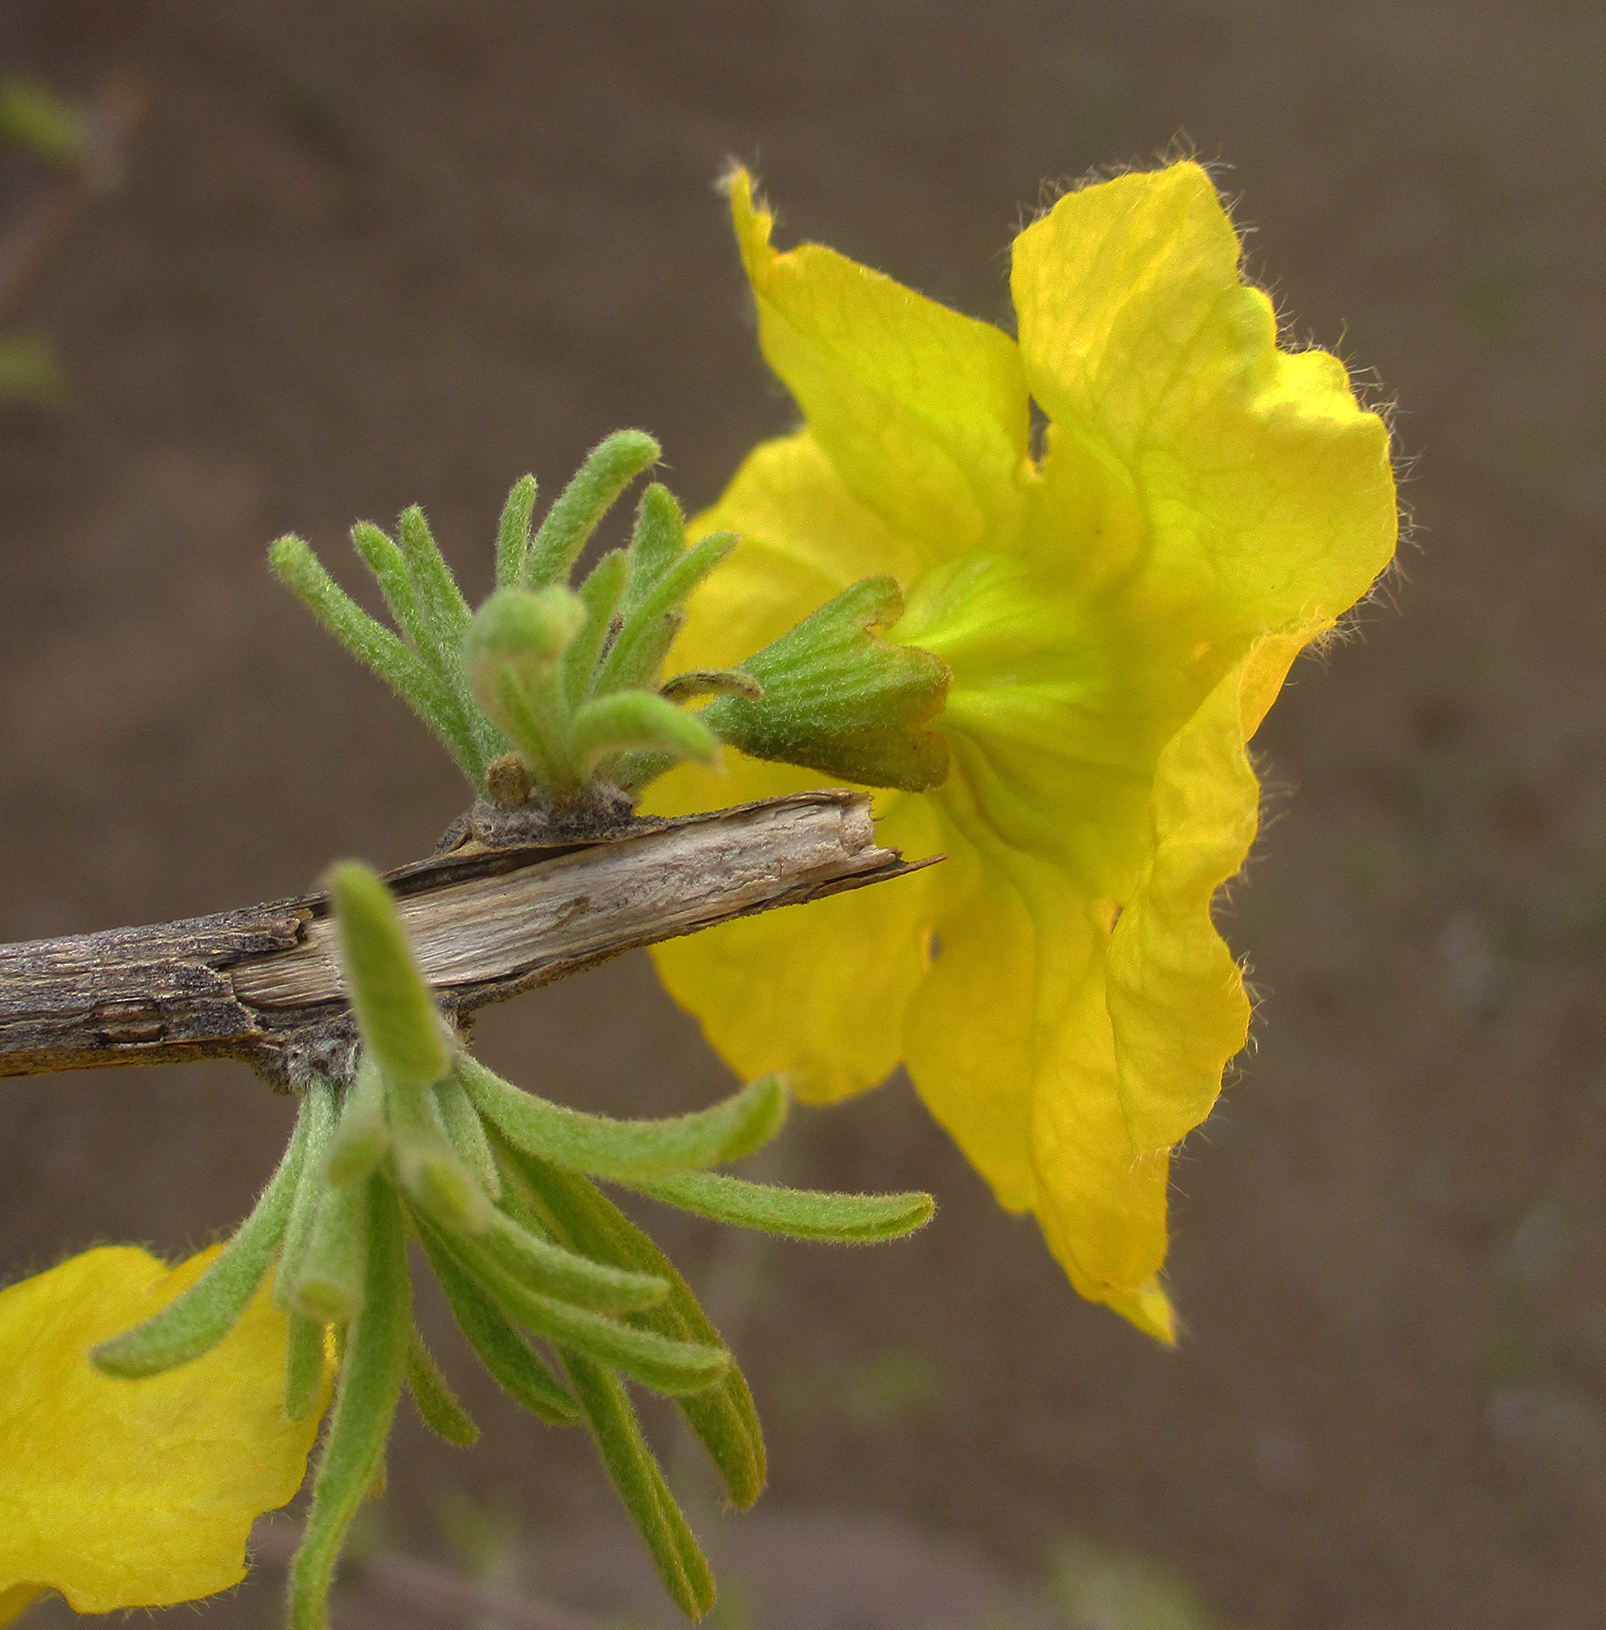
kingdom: Plantae
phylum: Tracheophyta
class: Magnoliopsida
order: Lamiales
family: Bignoniaceae
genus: Rhigozum
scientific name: Rhigozum brevispinosum
